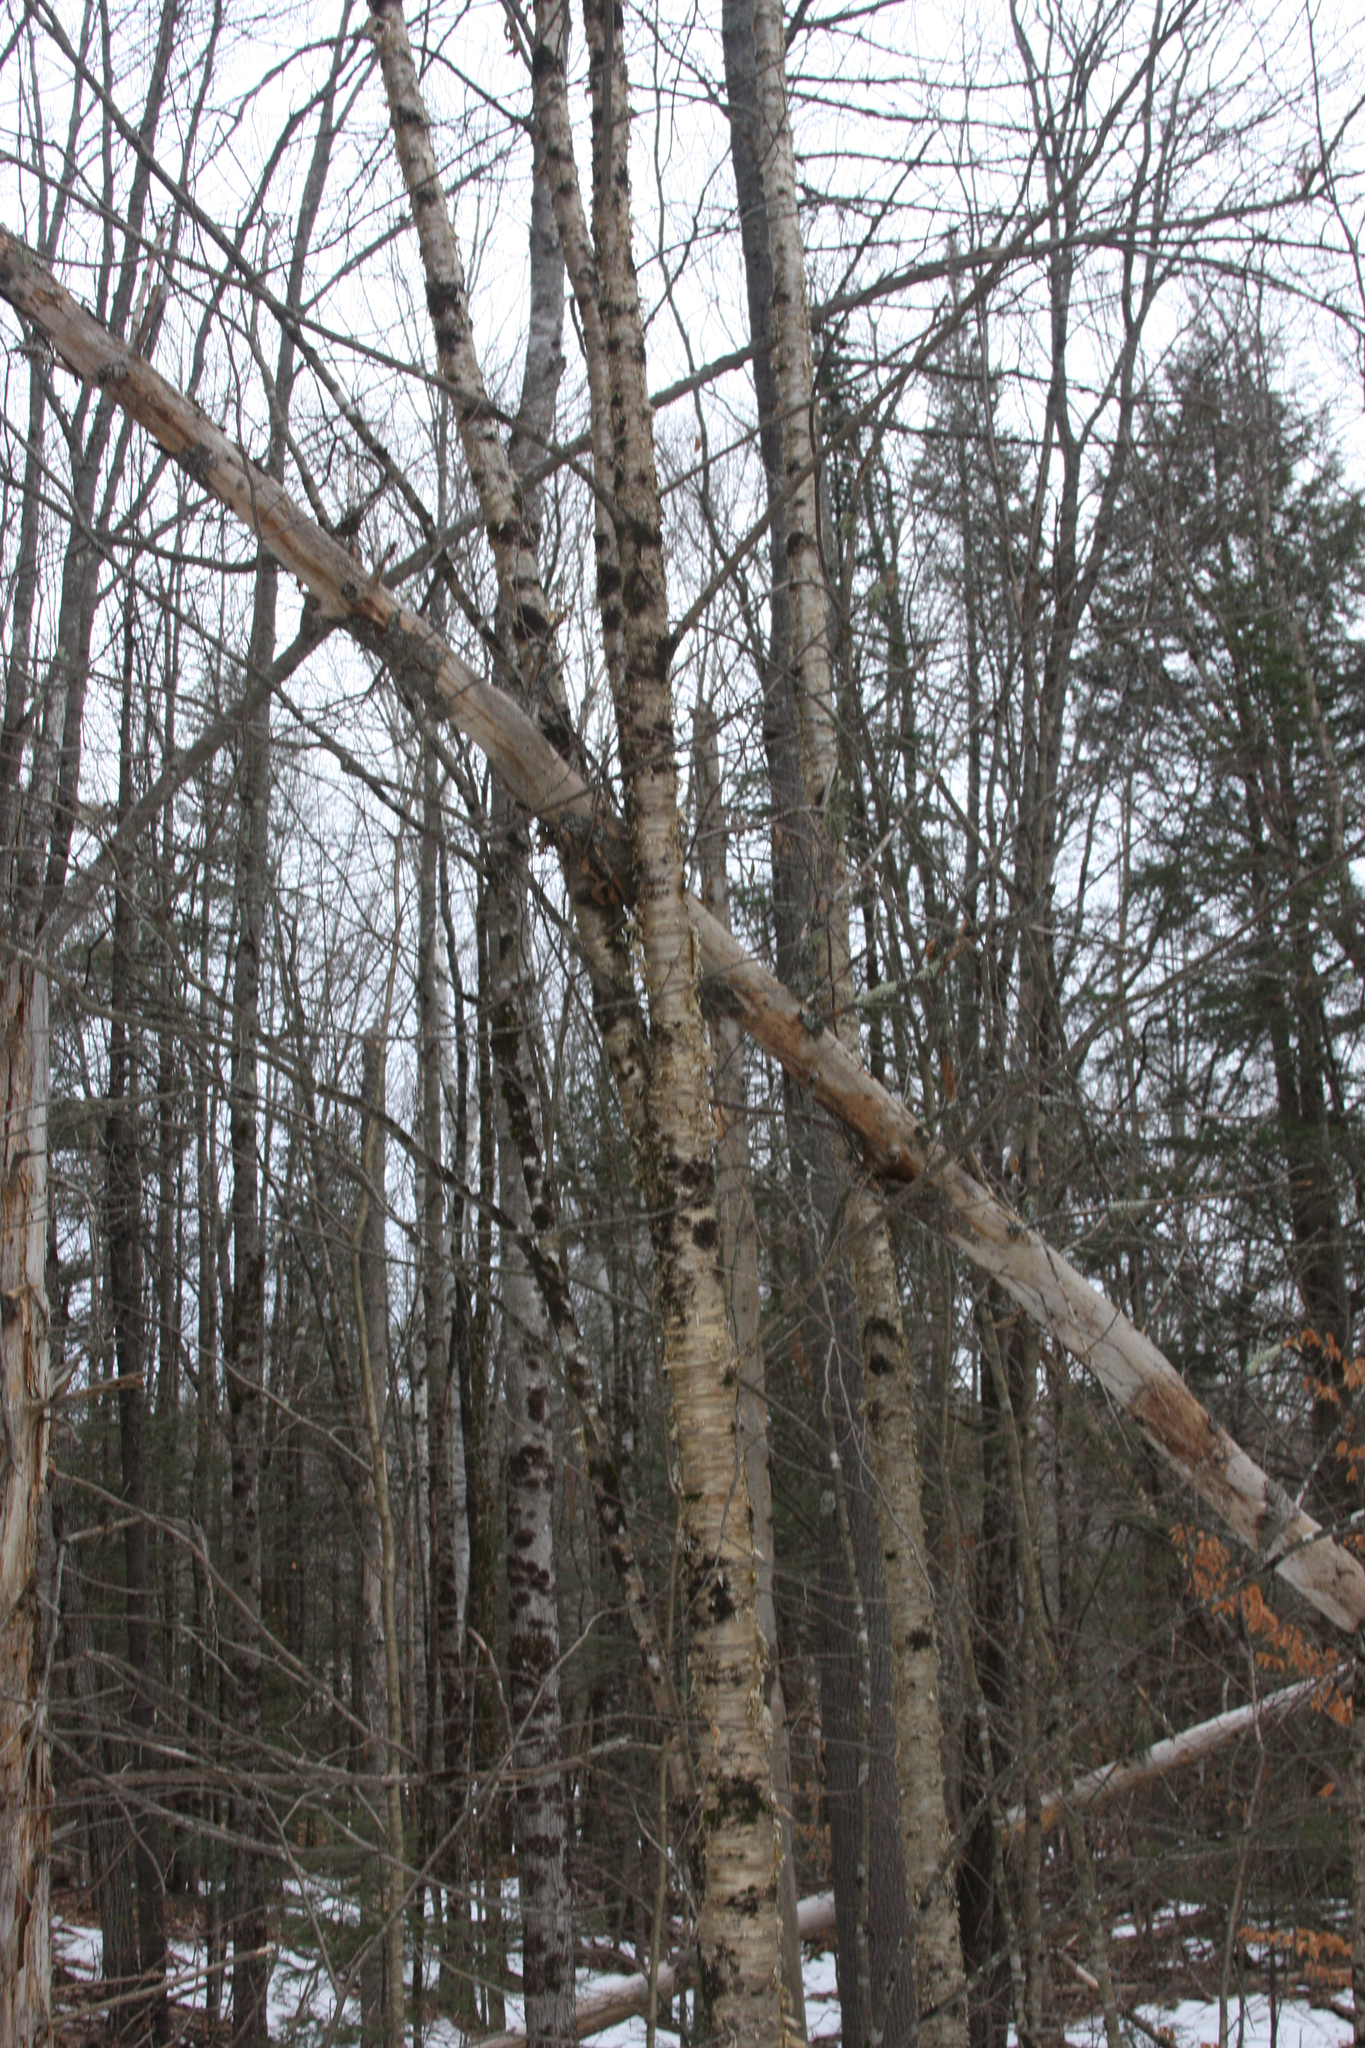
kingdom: Plantae
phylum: Tracheophyta
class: Magnoliopsida
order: Fagales
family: Betulaceae
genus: Betula
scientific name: Betula alleghaniensis
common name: Yellow birch
